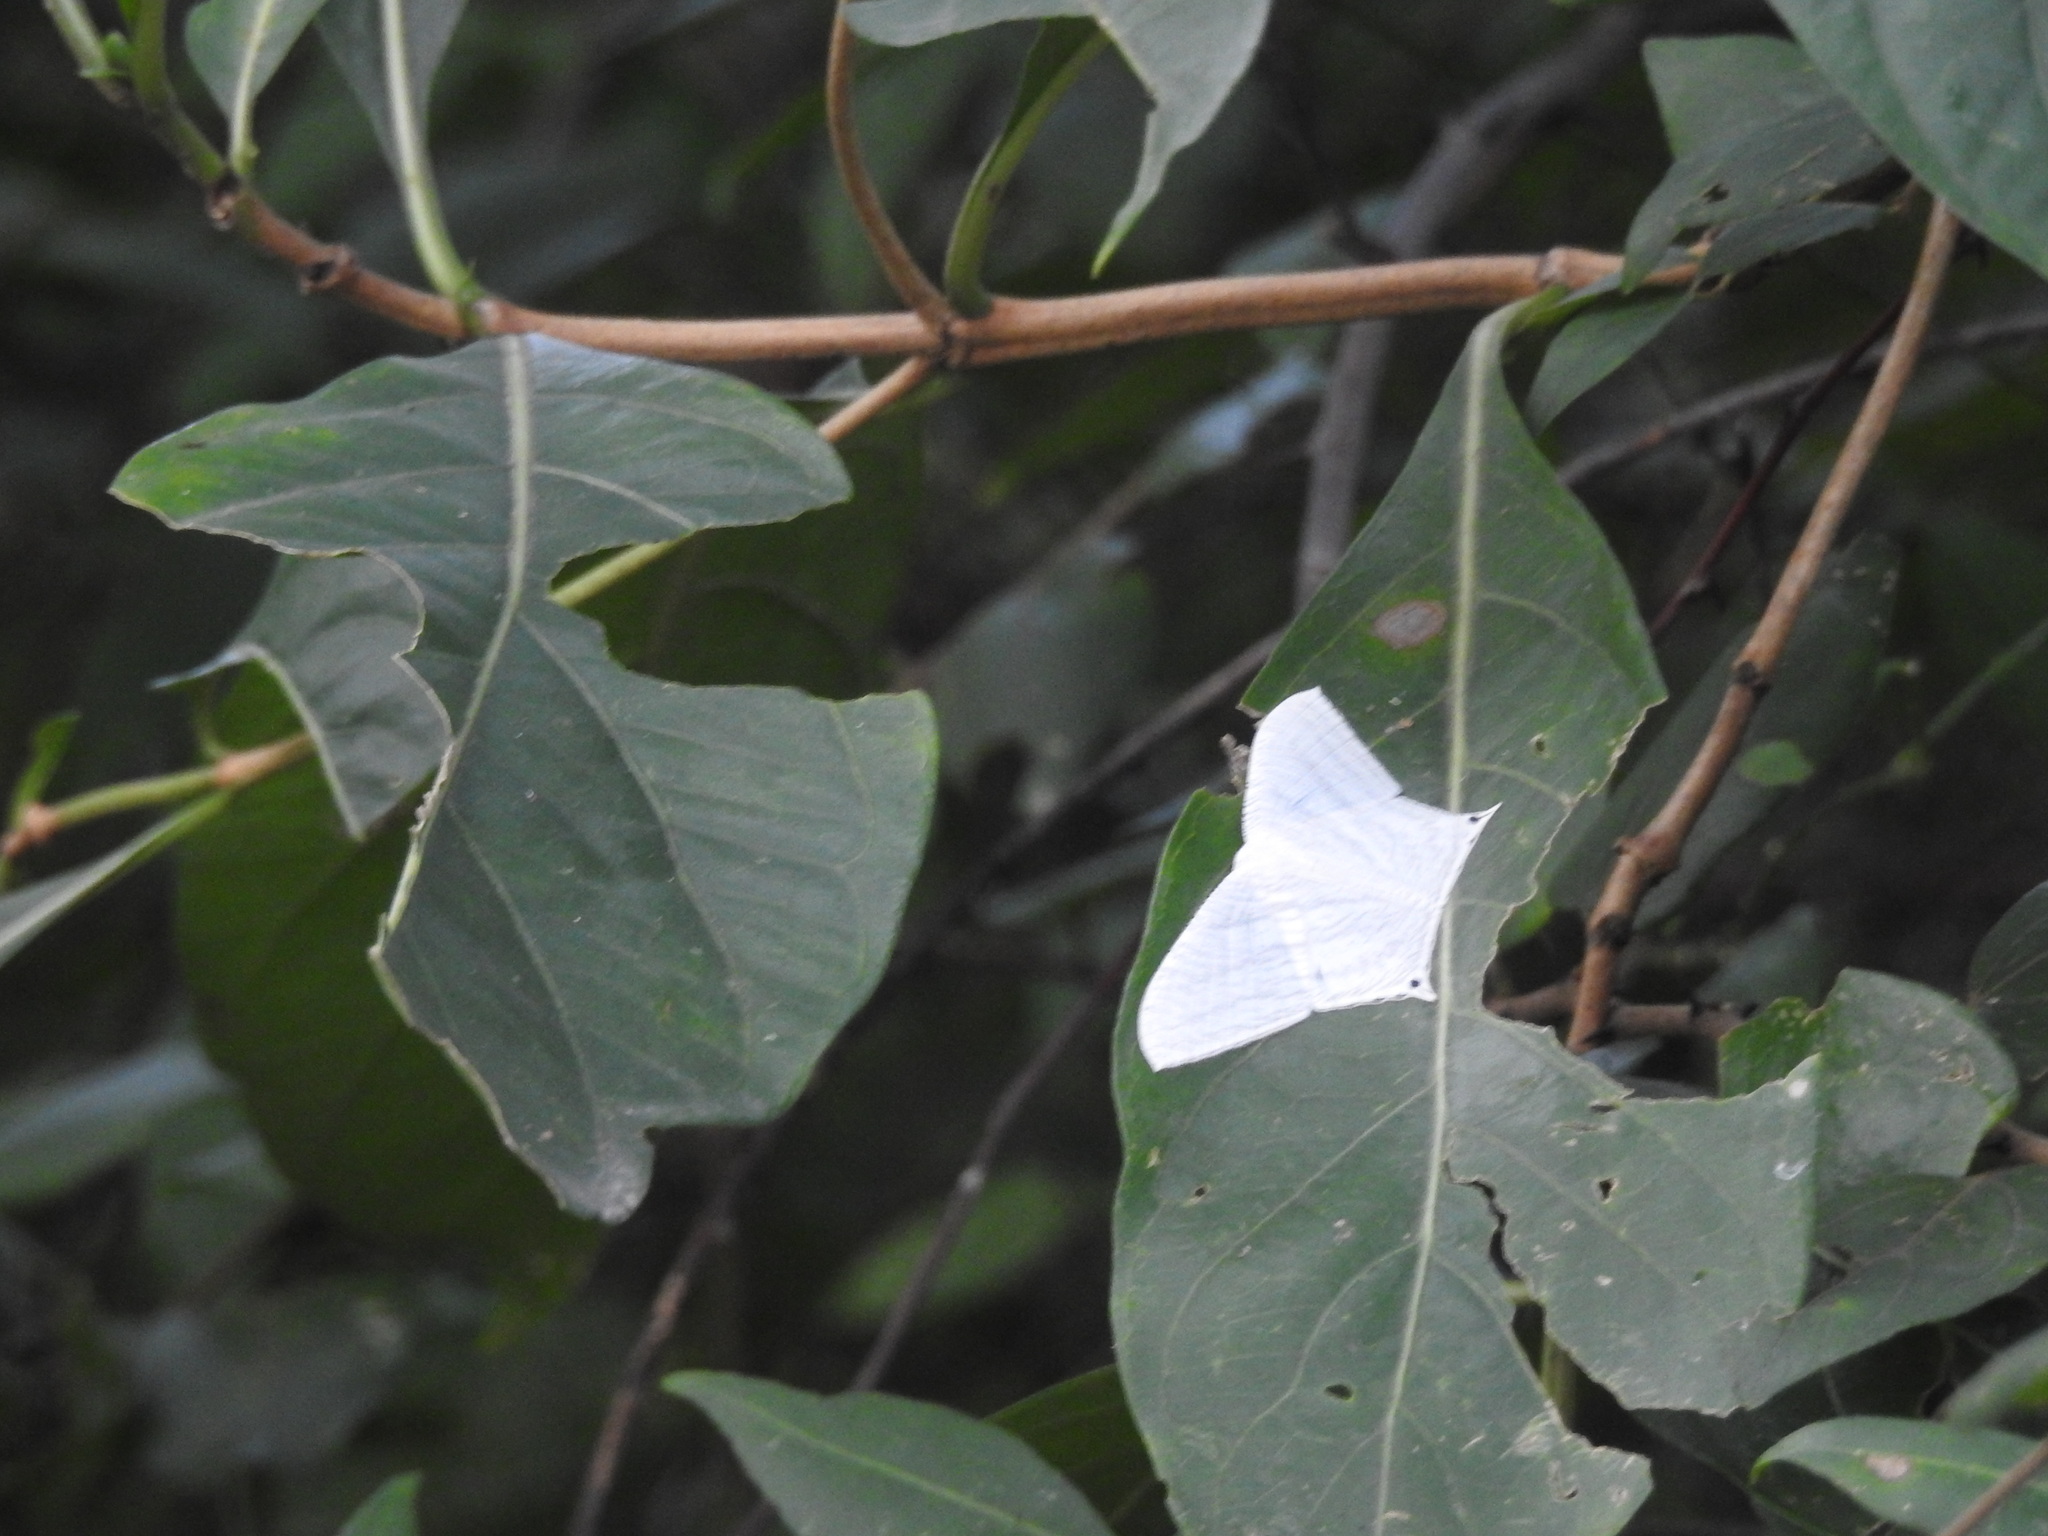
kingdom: Animalia
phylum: Arthropoda
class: Insecta
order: Lepidoptera
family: Uraniidae
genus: Micronia
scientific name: Micronia aculeata
